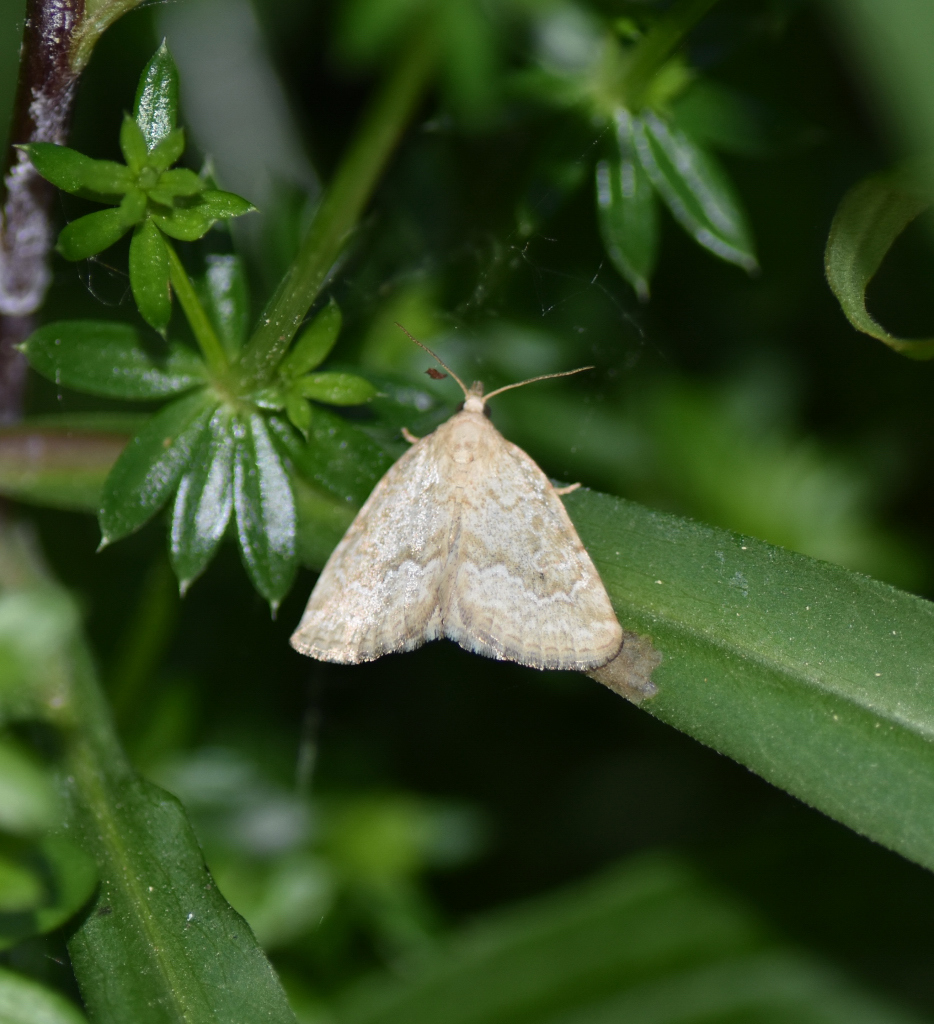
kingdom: Animalia
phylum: Arthropoda
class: Insecta
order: Lepidoptera
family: Noctuidae
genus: Protodeltote
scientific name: Protodeltote albidula
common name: Pale glyph
